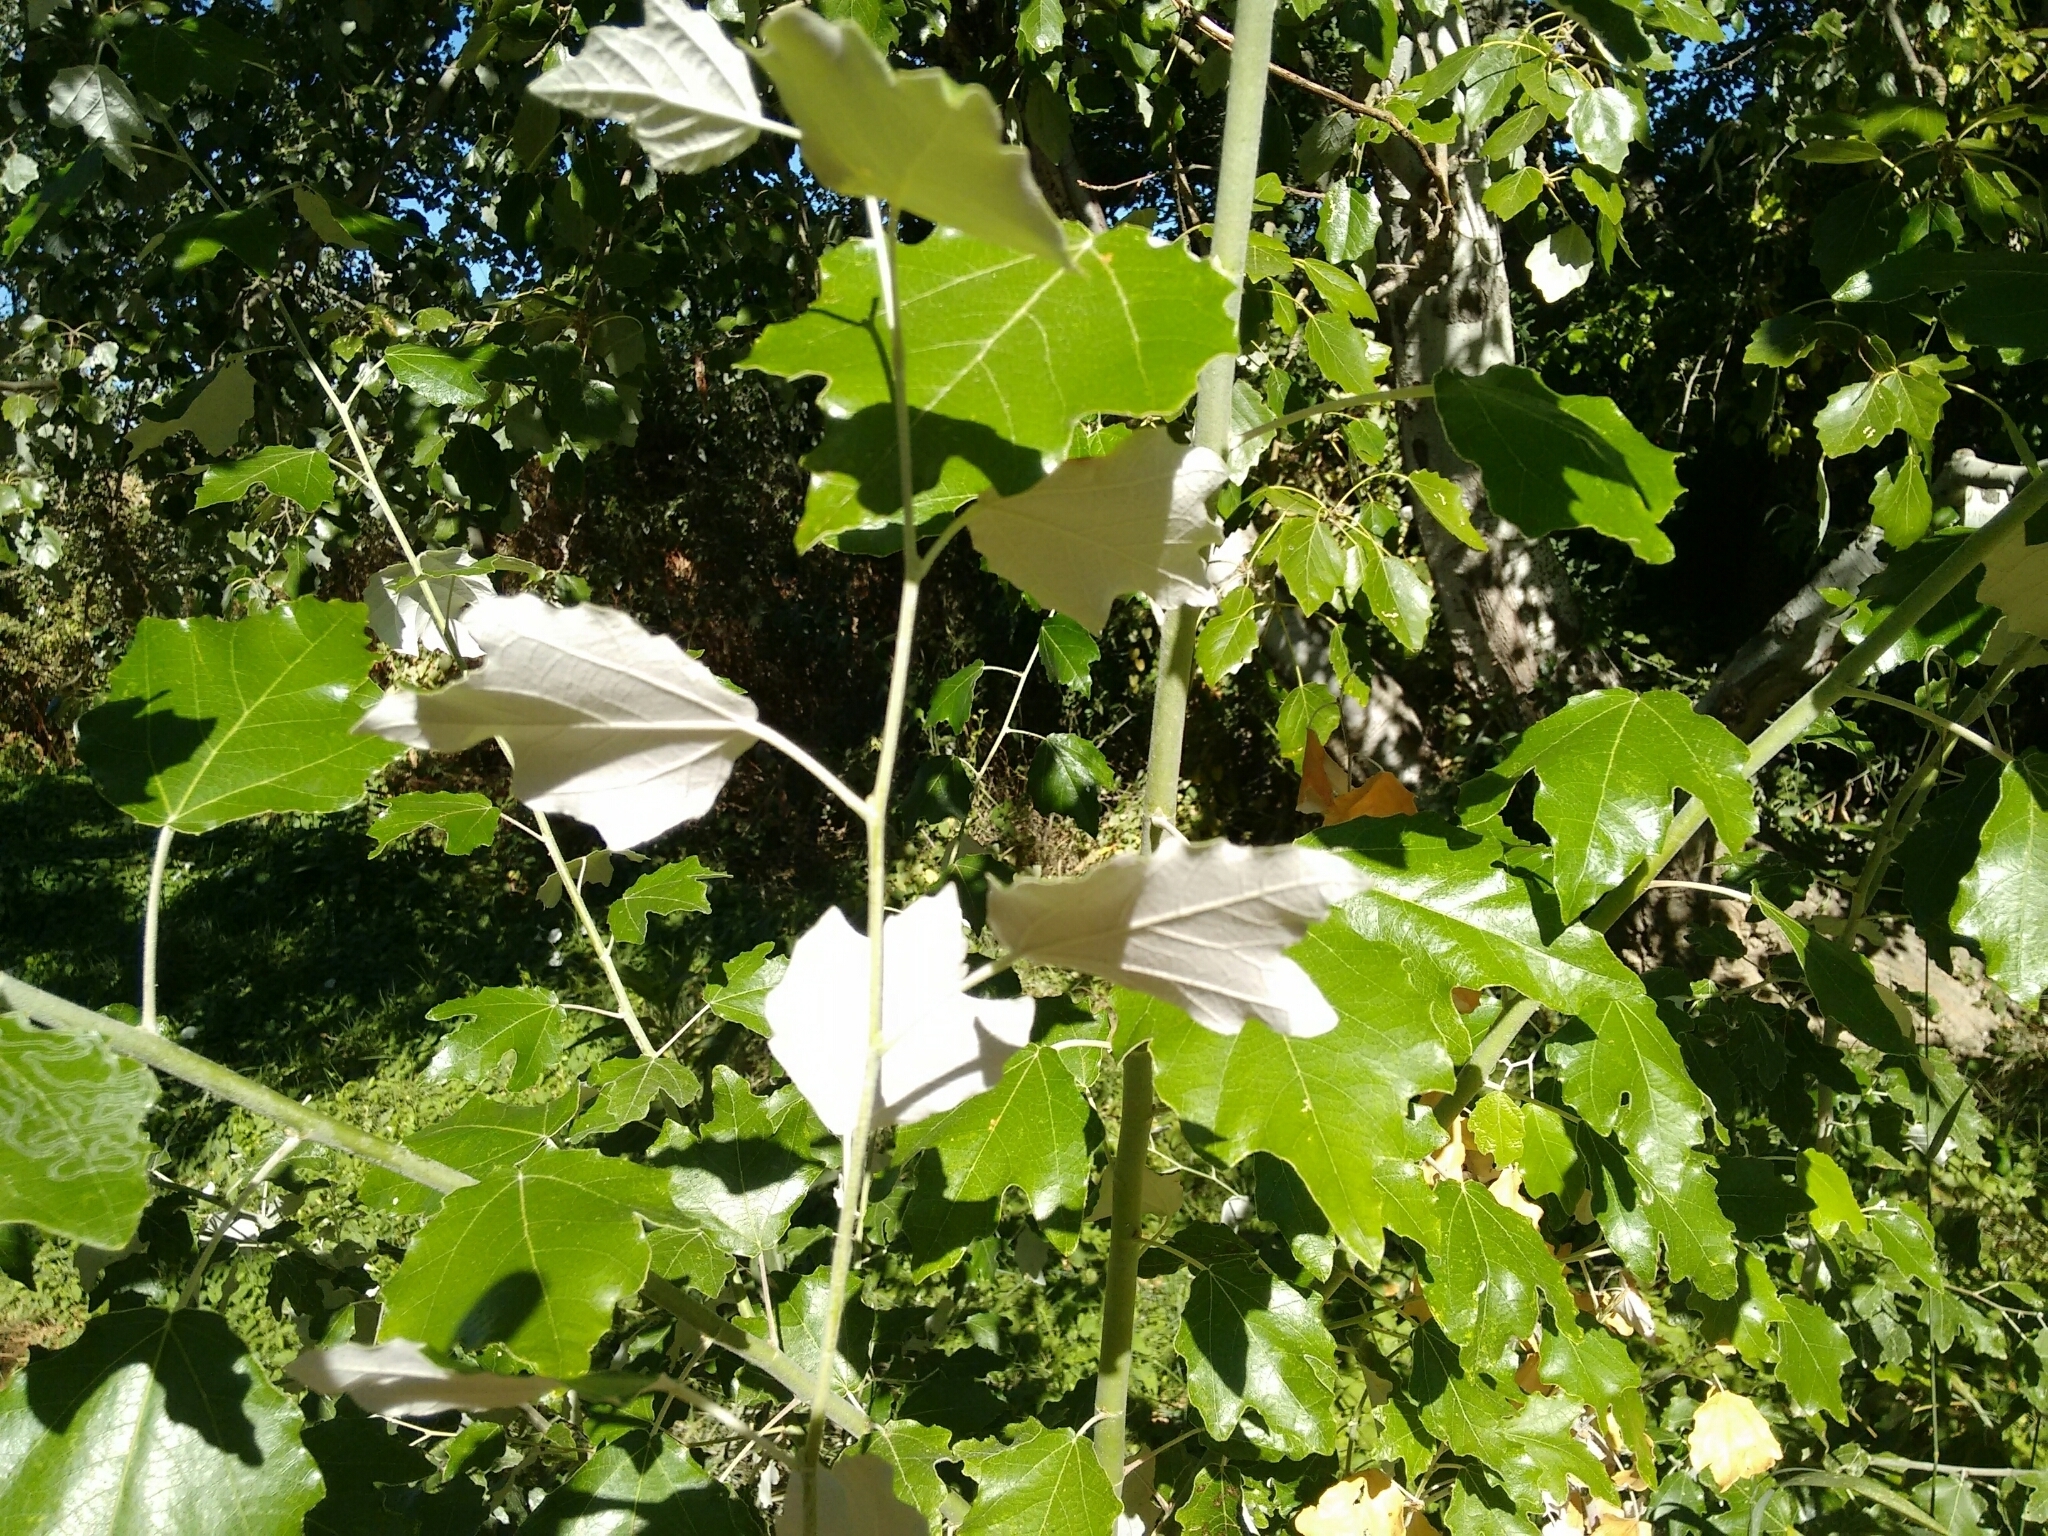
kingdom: Plantae
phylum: Tracheophyta
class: Magnoliopsida
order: Malpighiales
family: Salicaceae
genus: Populus
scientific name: Populus alba
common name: White poplar
